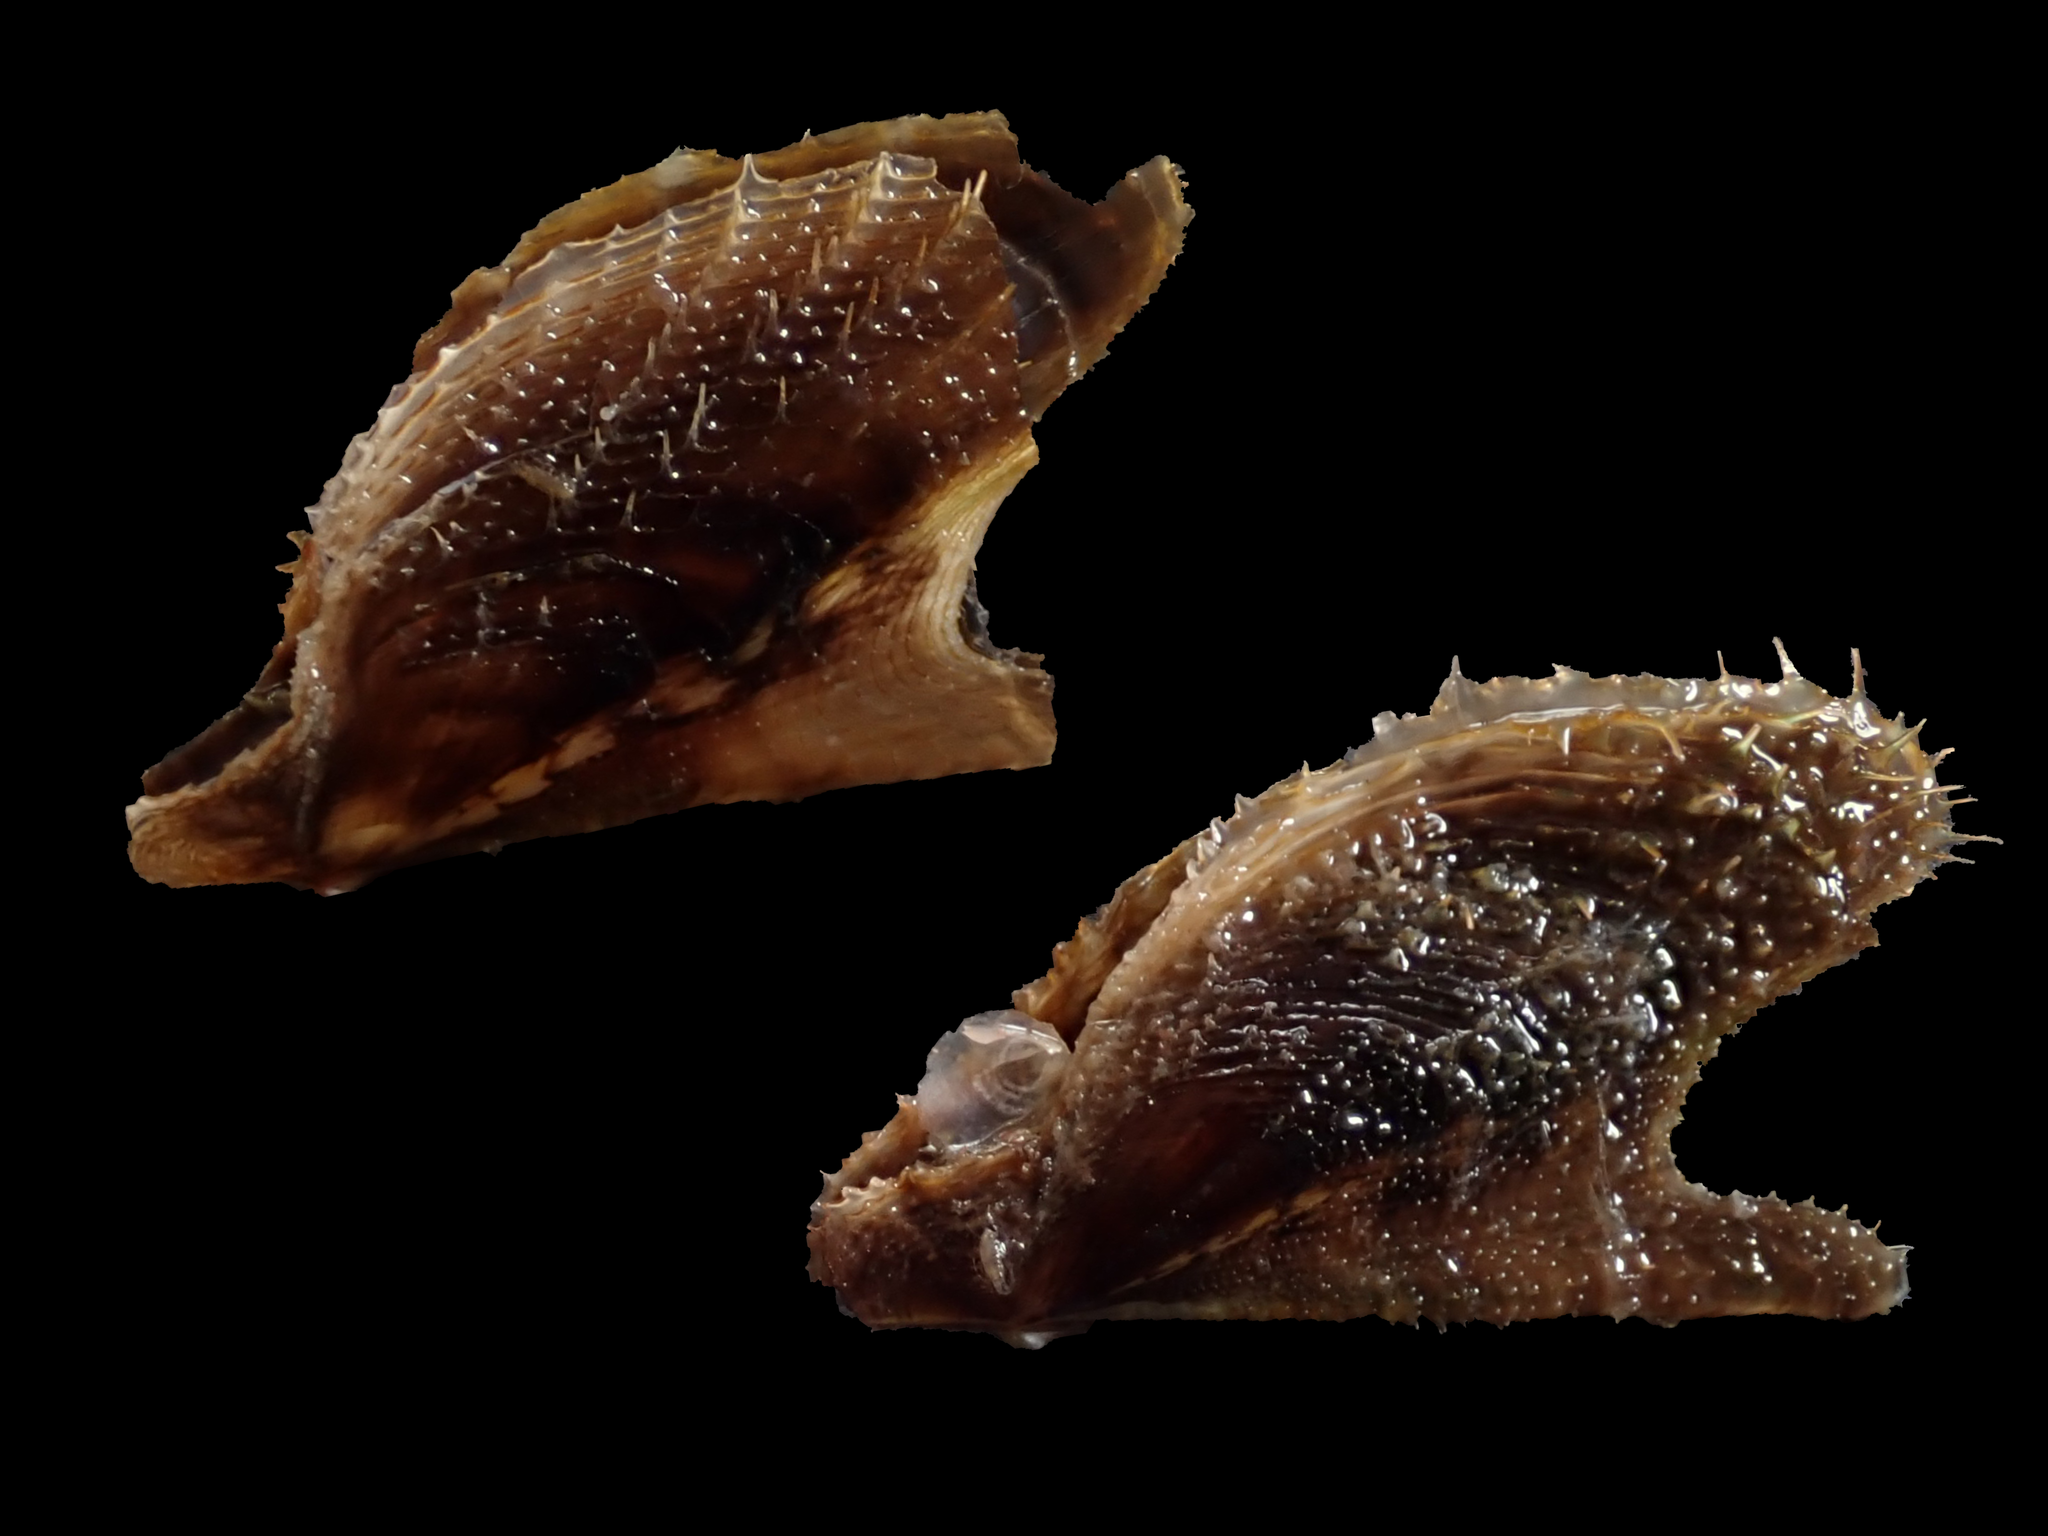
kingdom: Animalia
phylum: Mollusca
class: Bivalvia
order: Ostreida
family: Pteriidae
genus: Pteria
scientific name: Pteria
